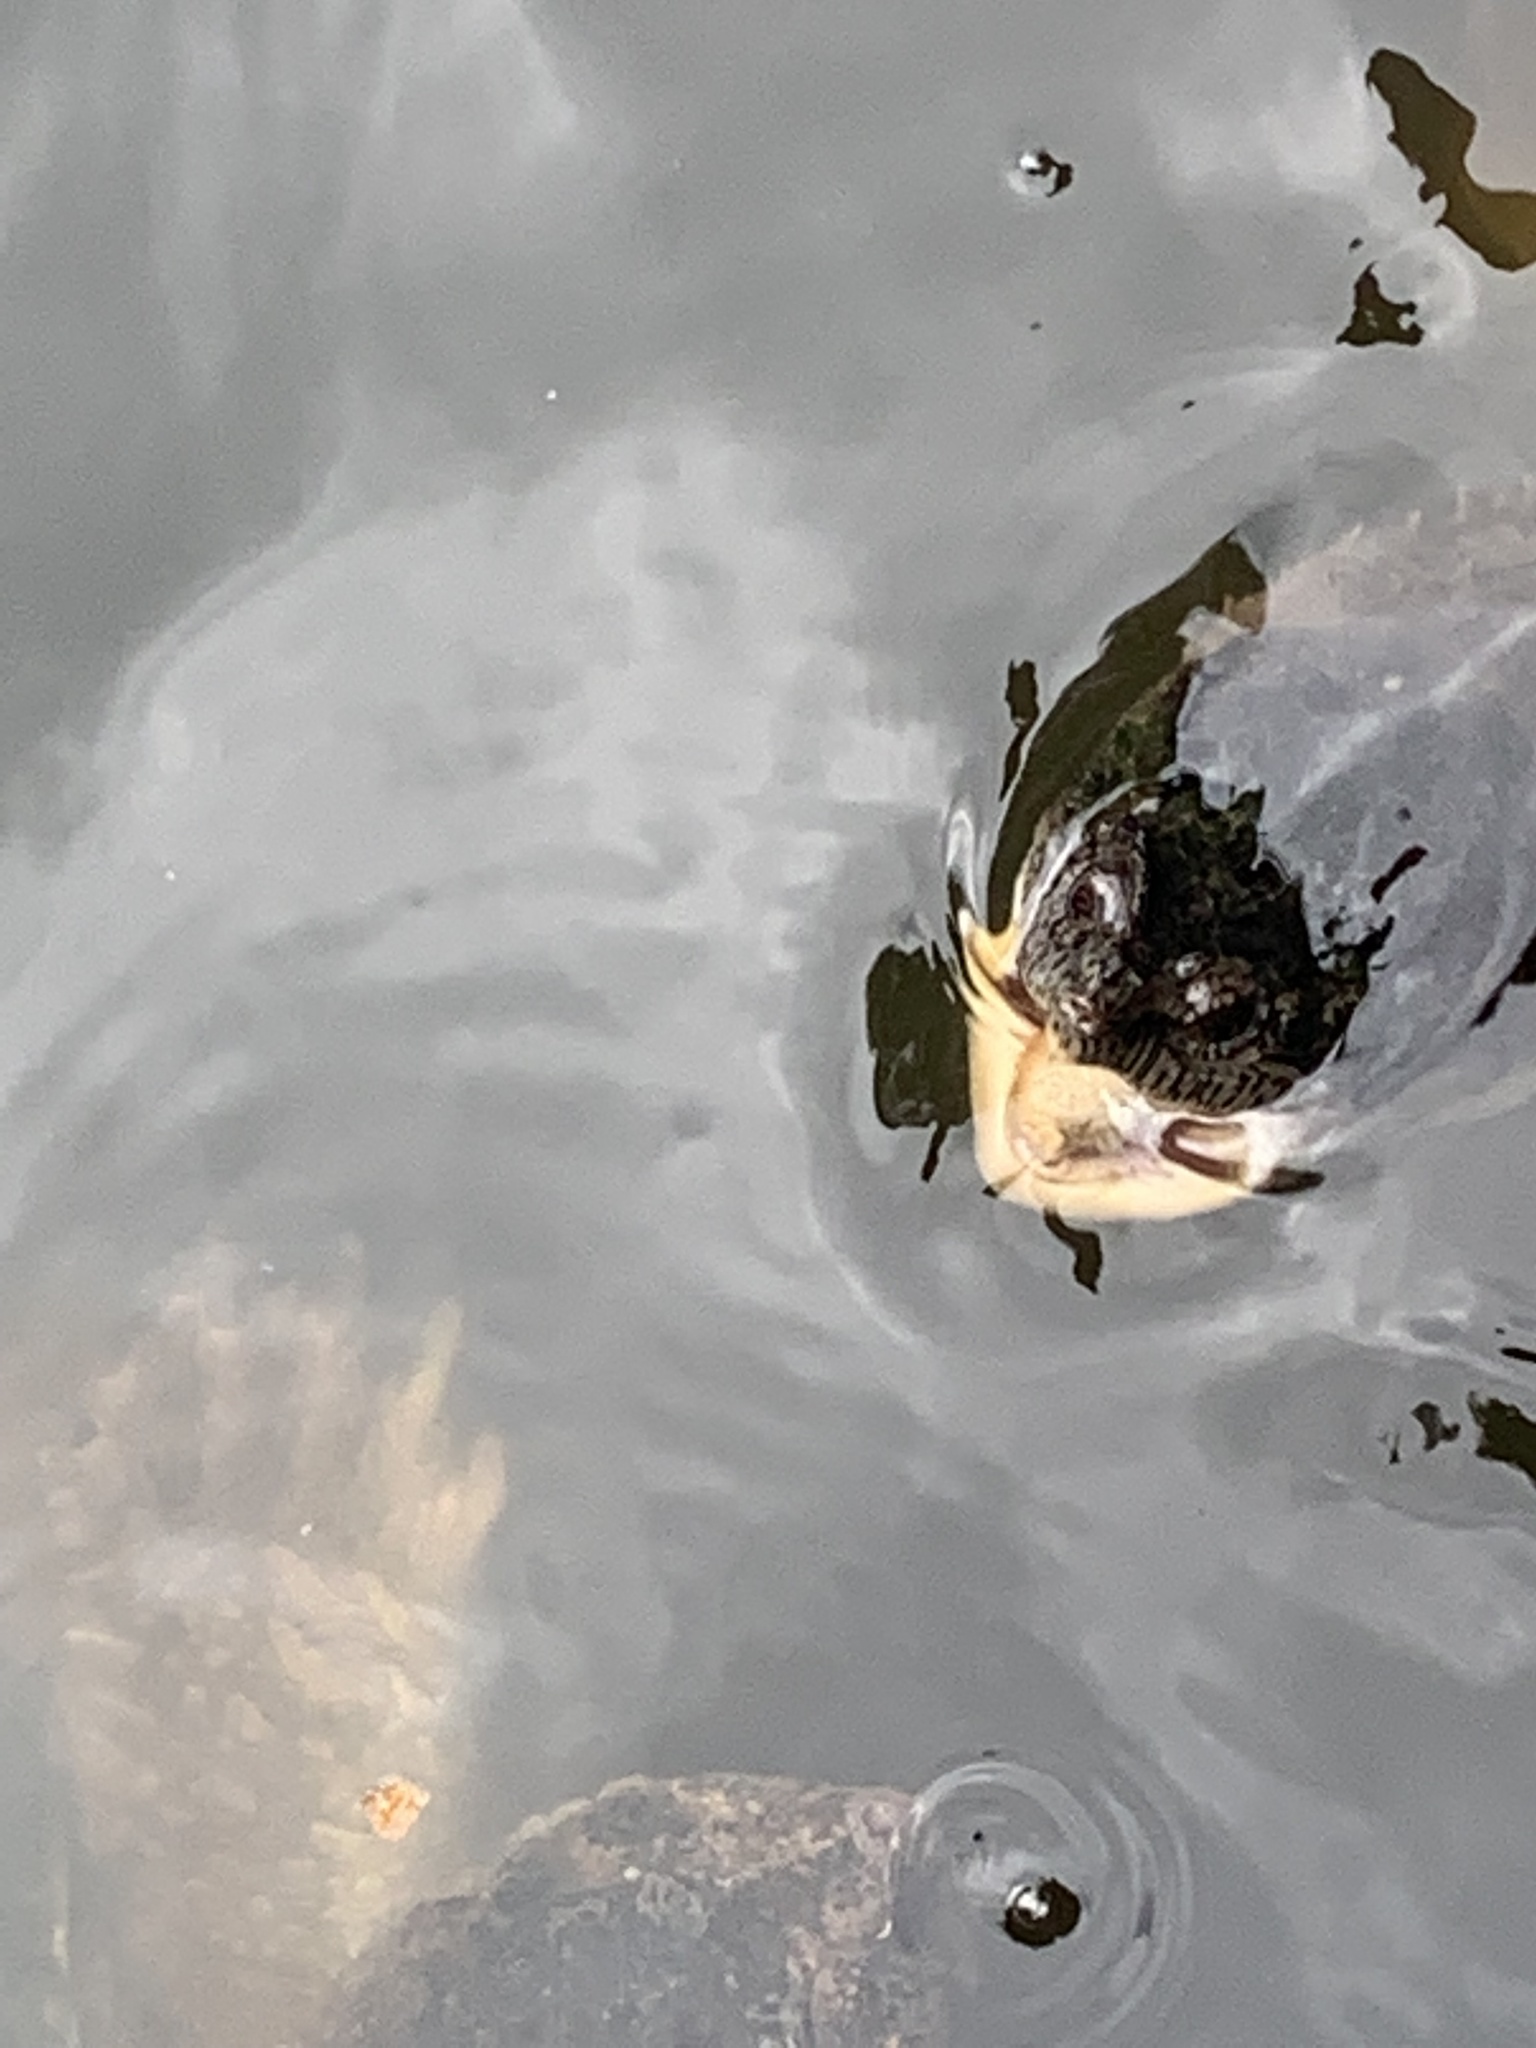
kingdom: Animalia
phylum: Chordata
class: Testudines
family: Chelydridae
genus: Chelydra
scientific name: Chelydra serpentina
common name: Common snapping turtle
